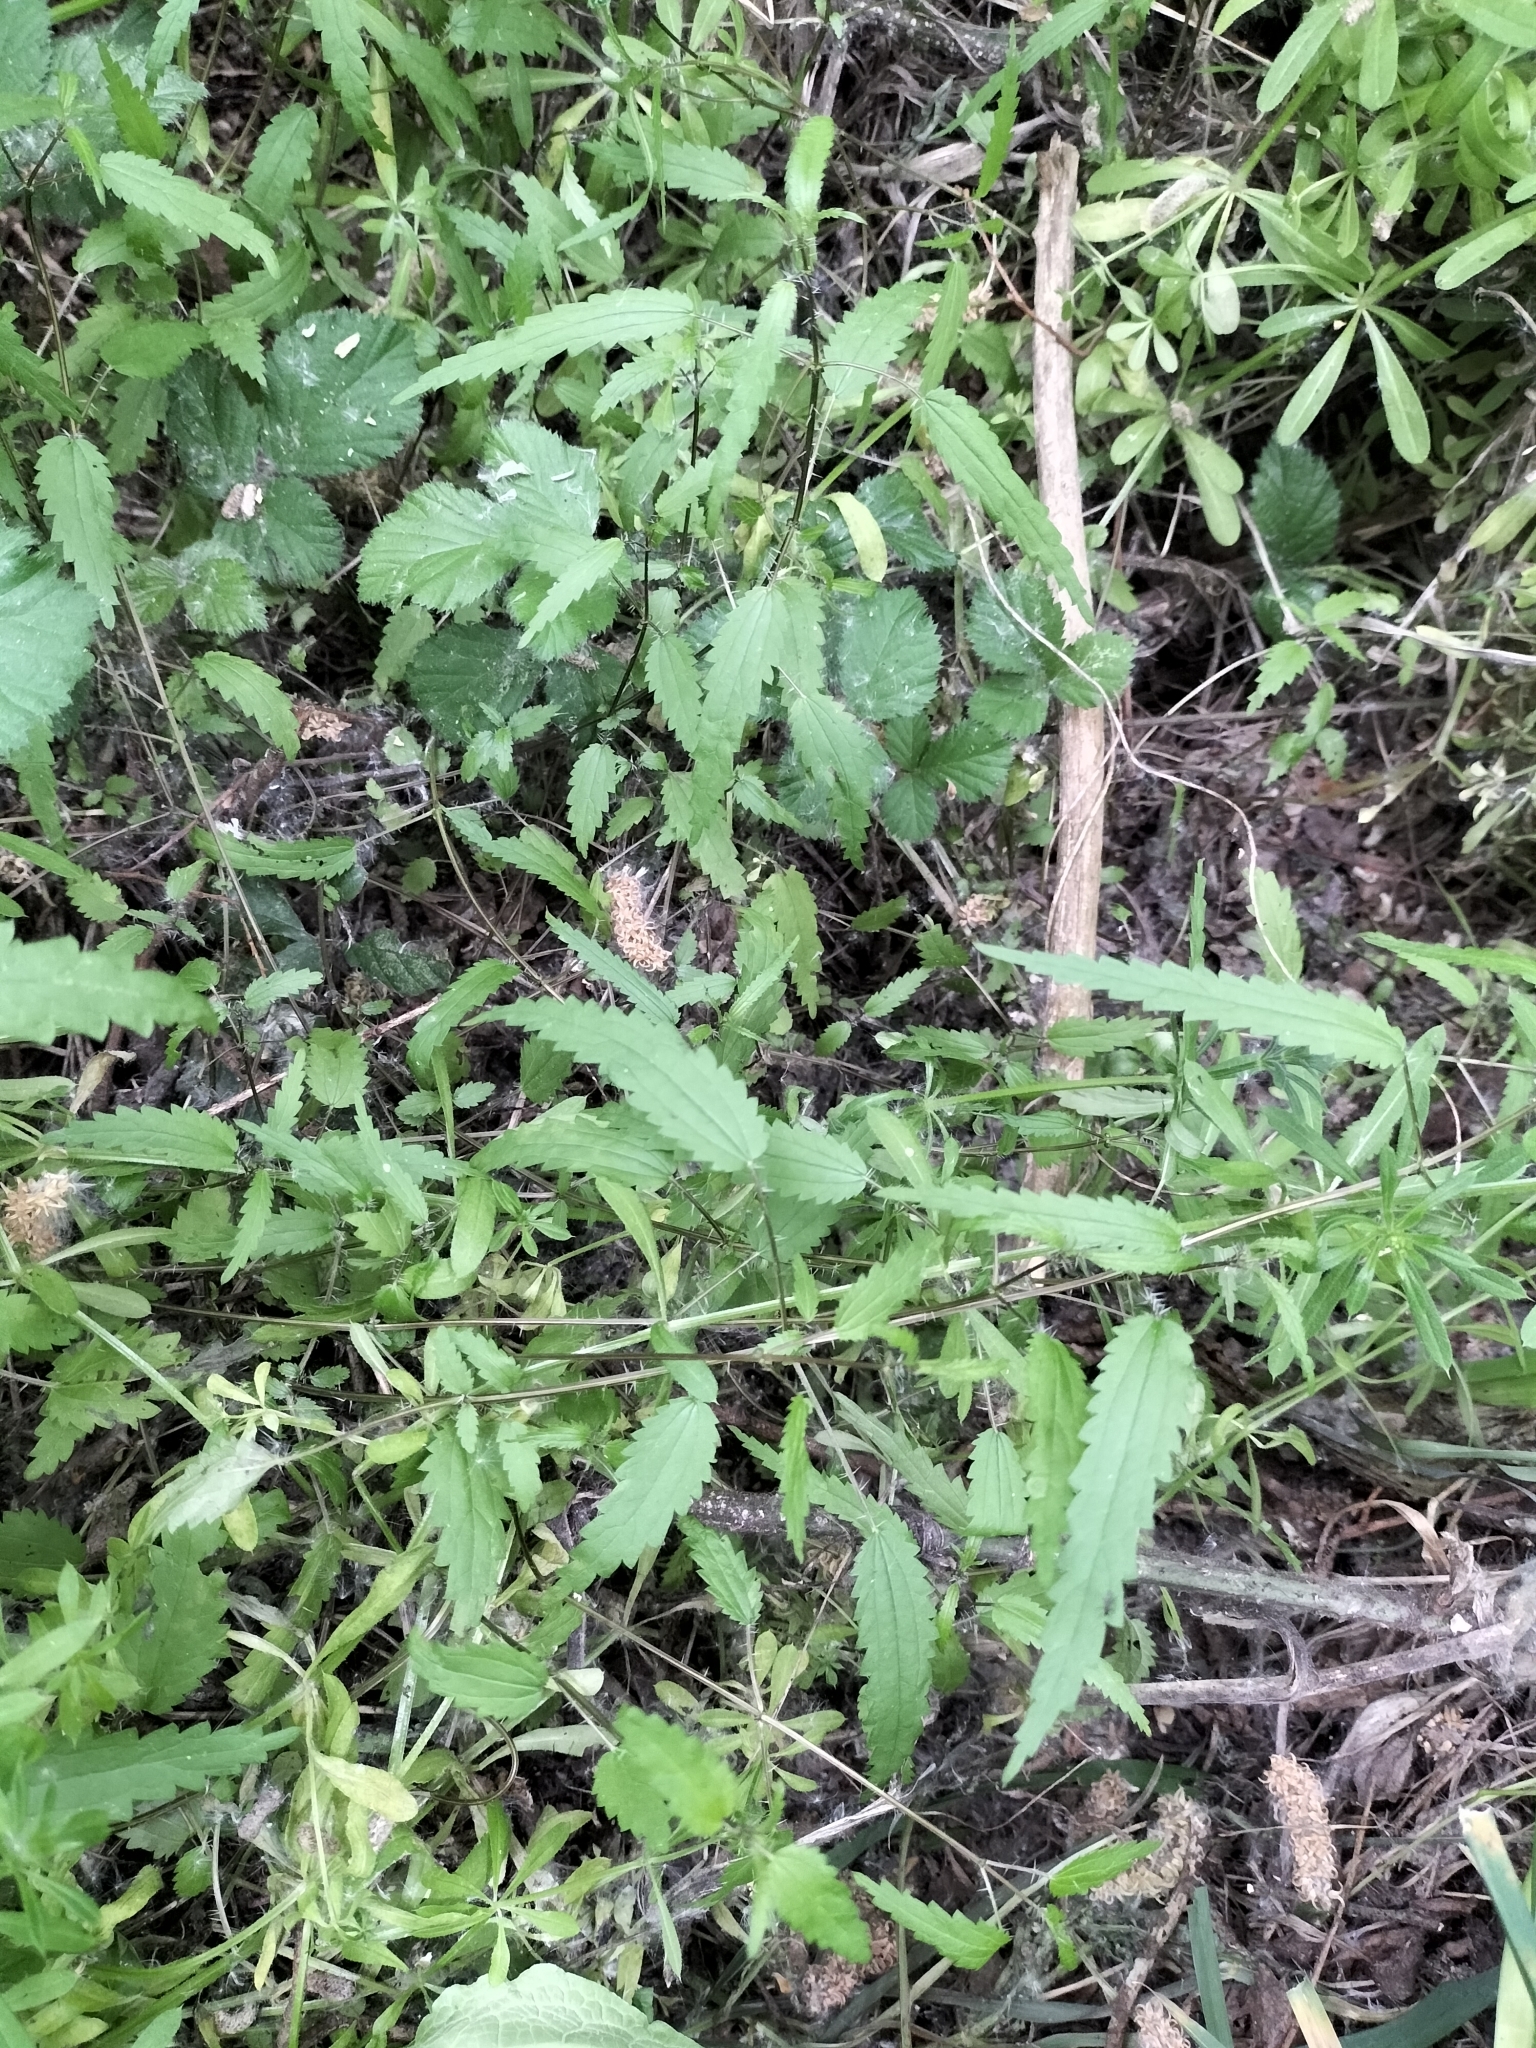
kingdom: Plantae
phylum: Tracheophyta
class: Magnoliopsida
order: Rosales
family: Urticaceae
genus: Urtica
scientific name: Urtica perconfusa
